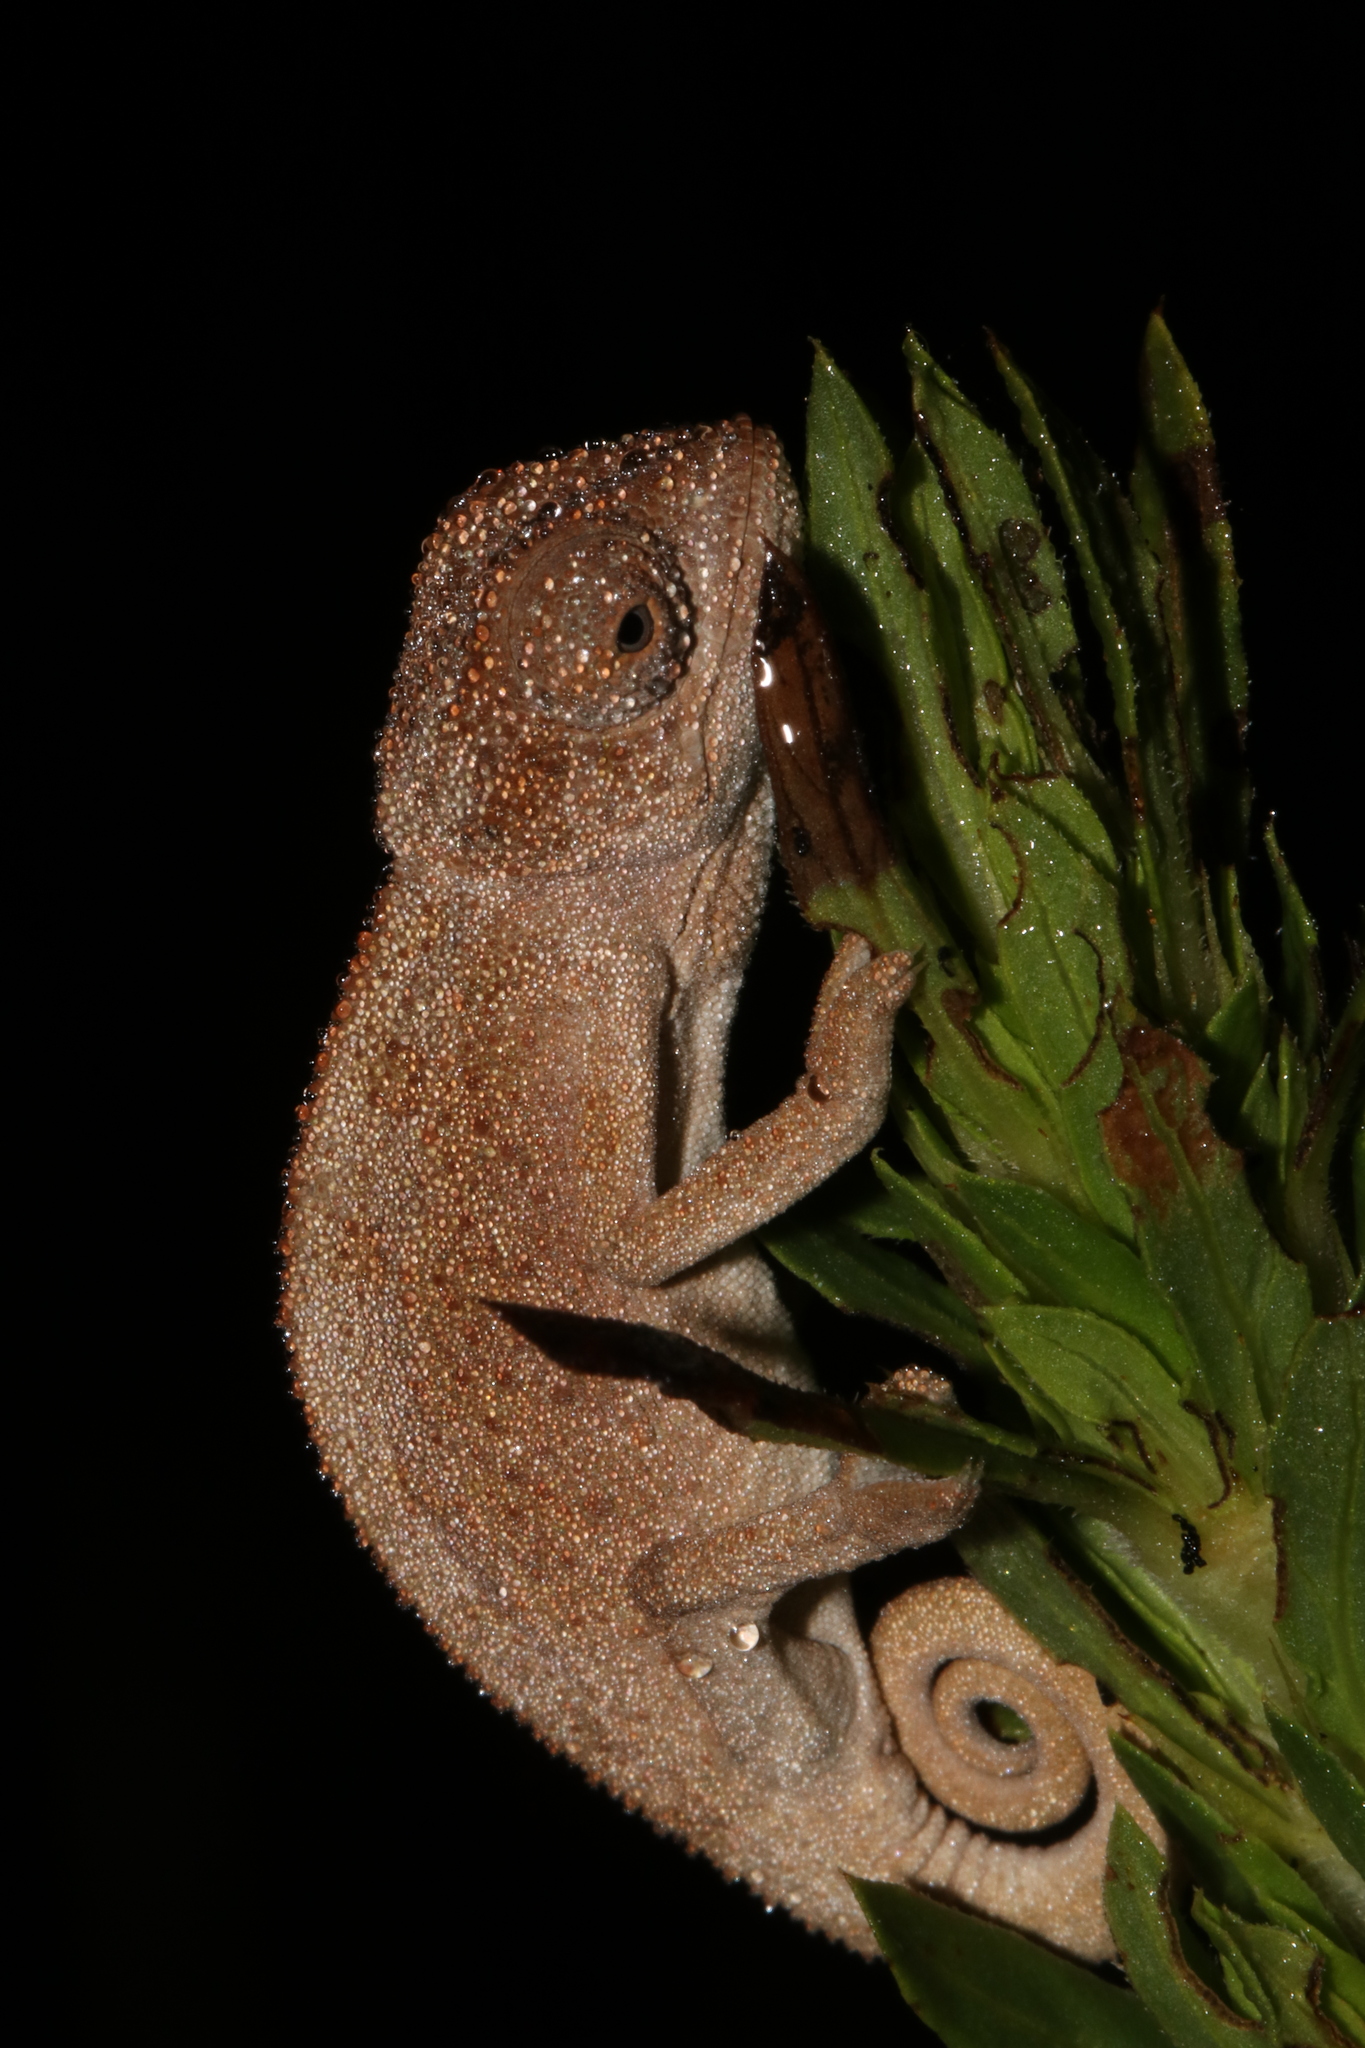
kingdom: Animalia
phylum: Chordata
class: Squamata
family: Chamaeleonidae
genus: Trioceros
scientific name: Trioceros goetzei
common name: Ilolo chameleon
